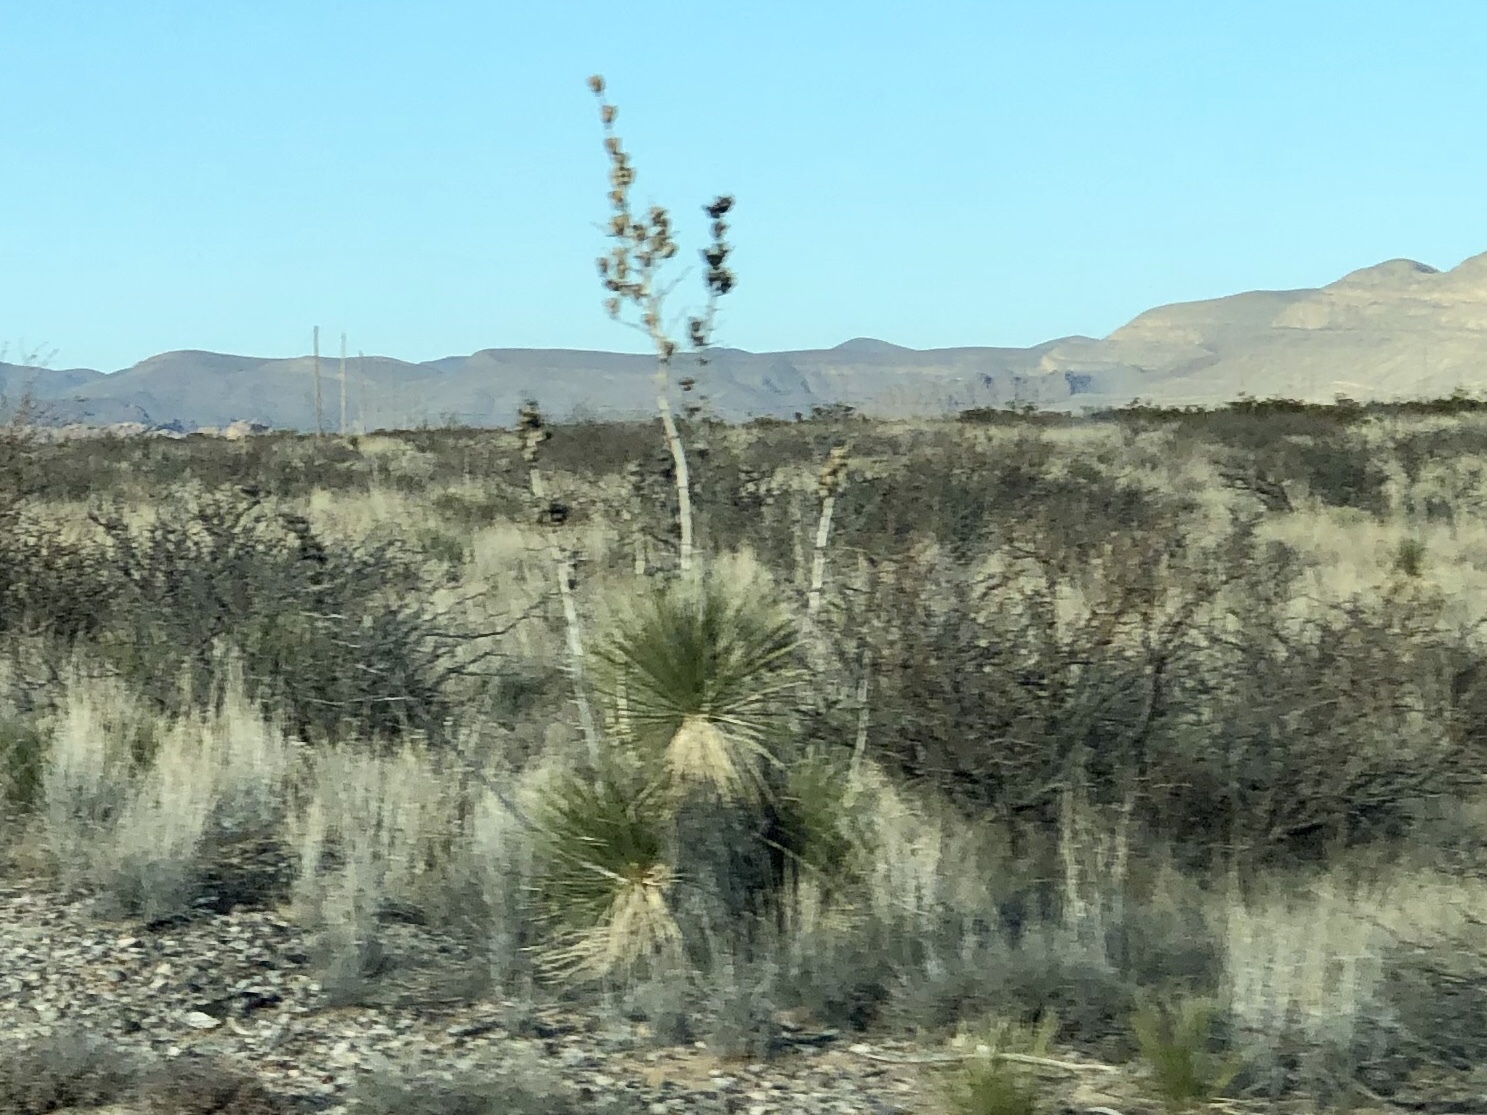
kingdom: Plantae
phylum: Tracheophyta
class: Liliopsida
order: Asparagales
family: Asparagaceae
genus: Yucca
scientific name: Yucca elata
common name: Palmella
